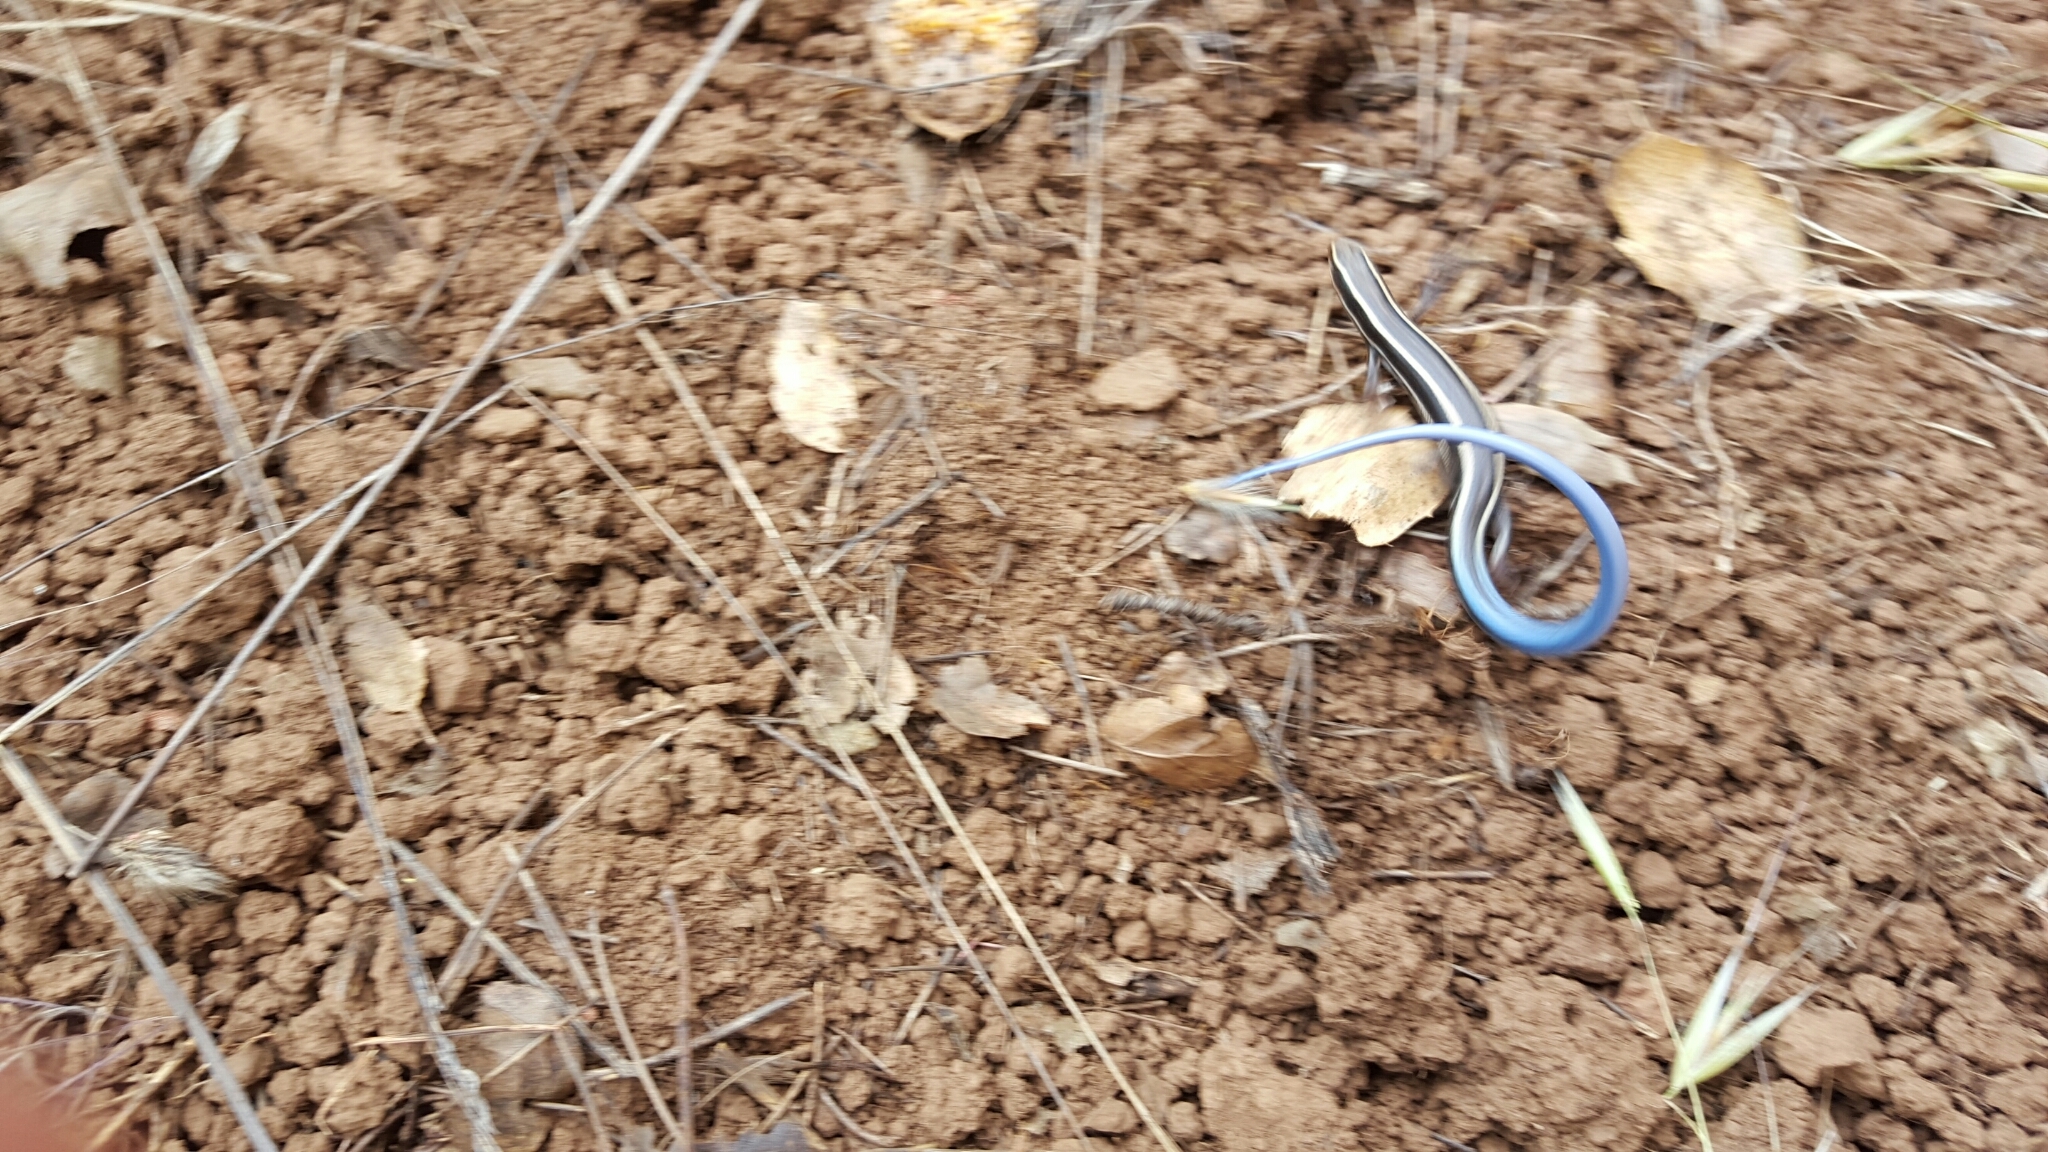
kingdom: Animalia
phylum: Chordata
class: Squamata
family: Scincidae
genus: Plestiodon
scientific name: Plestiodon skiltonianus
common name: Coronado island skink [interparietalis]
